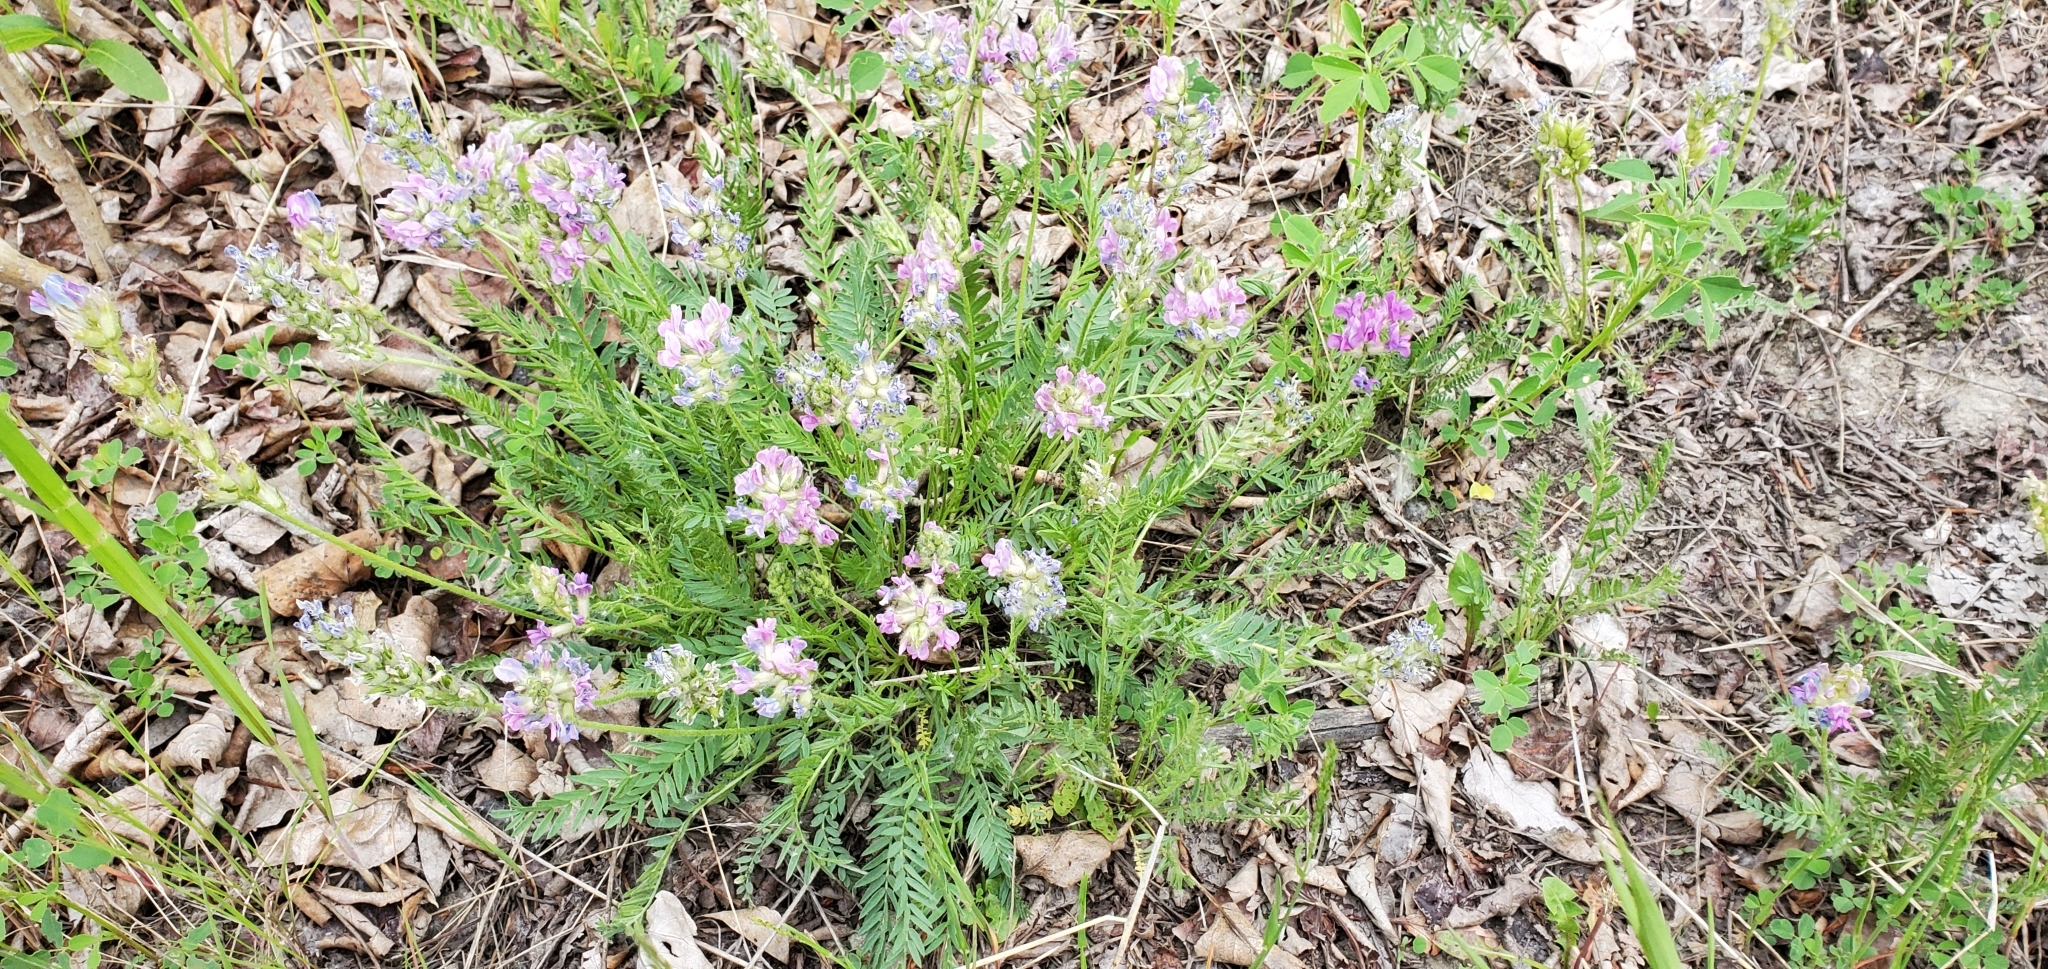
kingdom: Plantae
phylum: Tracheophyta
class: Magnoliopsida
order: Fabales
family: Fabaceae
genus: Oxytropis
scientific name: Oxytropis borealis
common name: Boreal locoweed
